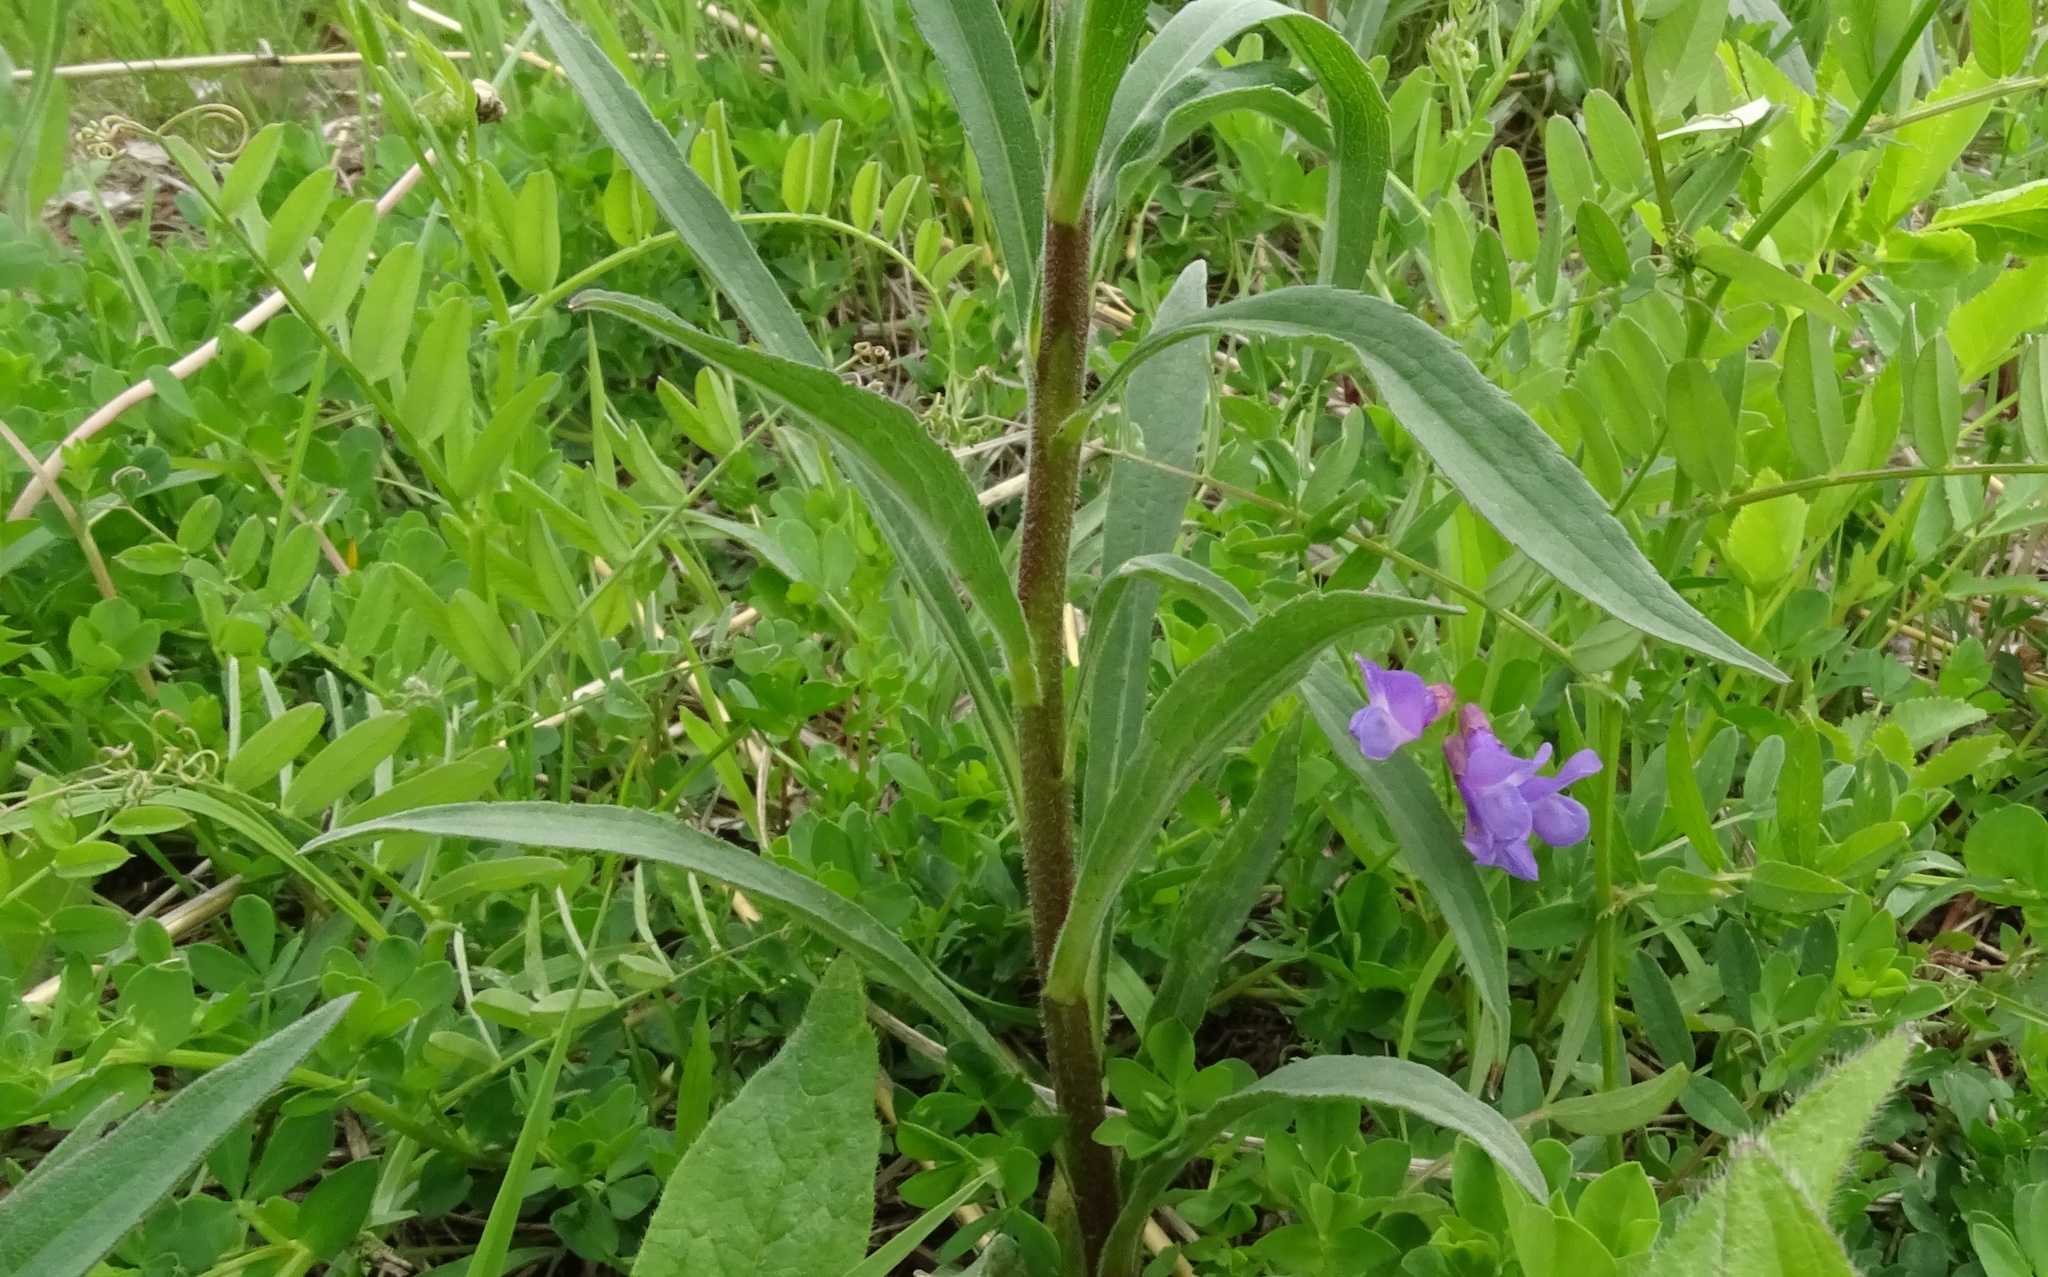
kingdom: Plantae
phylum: Tracheophyta
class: Magnoliopsida
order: Fabales
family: Fabaceae
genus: Vicia
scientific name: Vicia americana
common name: American vetch
